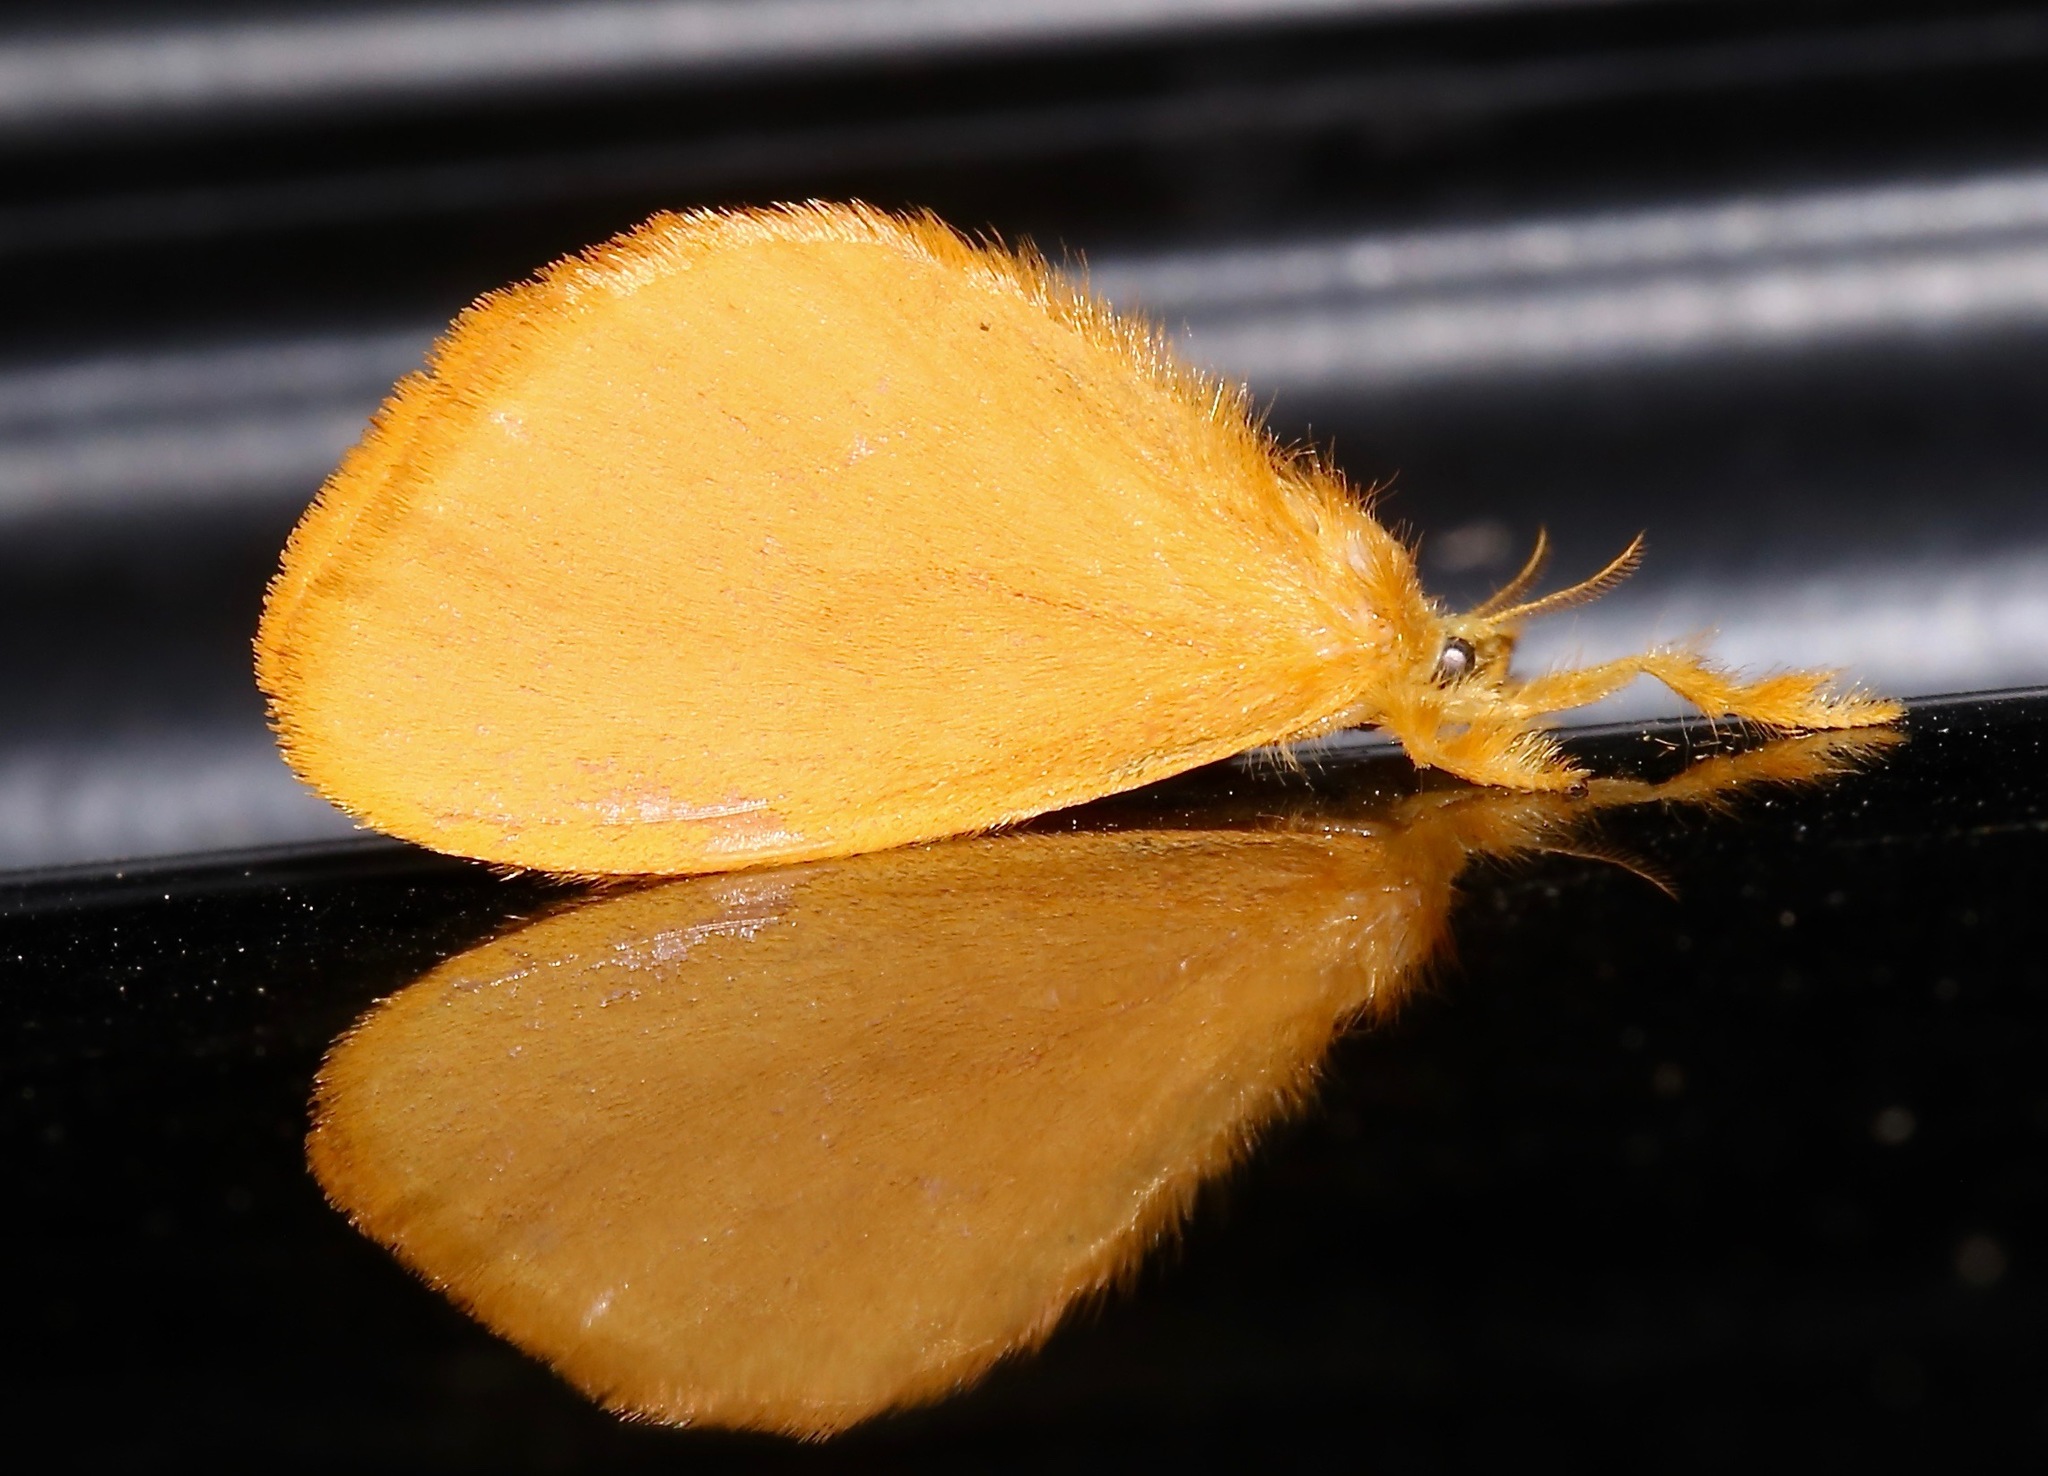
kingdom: Animalia
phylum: Arthropoda
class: Insecta
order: Lepidoptera
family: Dalceridae
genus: Dalcerides
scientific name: Dalcerides ingenita
